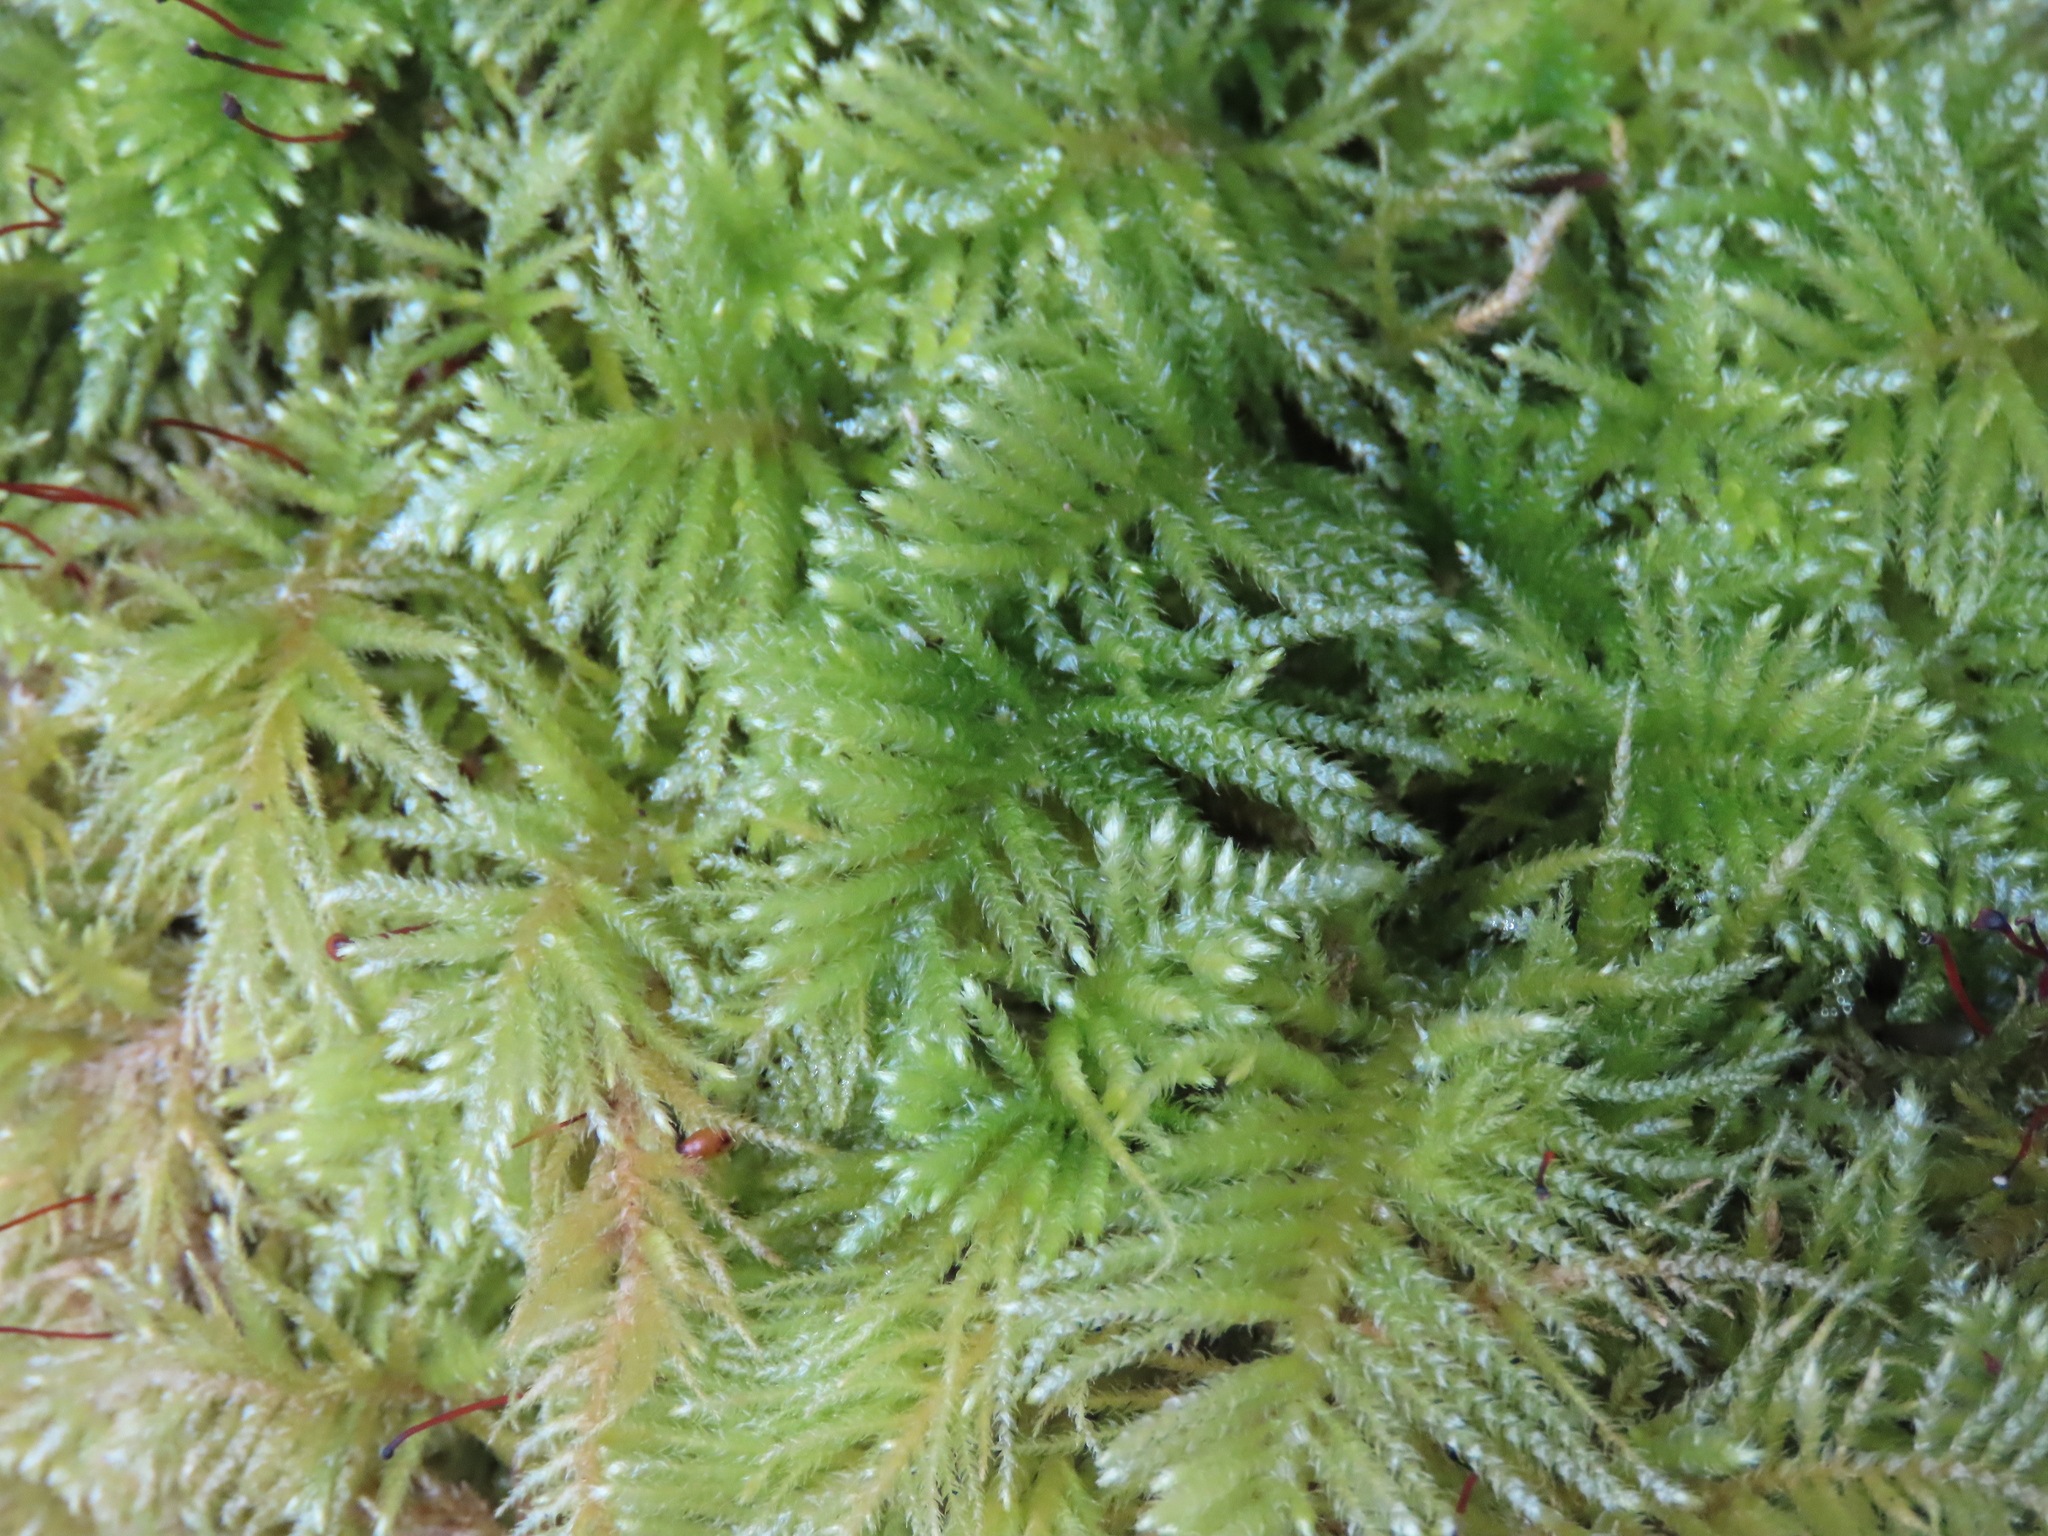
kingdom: Plantae
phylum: Bryophyta
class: Bryopsida
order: Hypnales
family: Brachytheciaceae
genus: Kindbergia
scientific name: Kindbergia oregana
